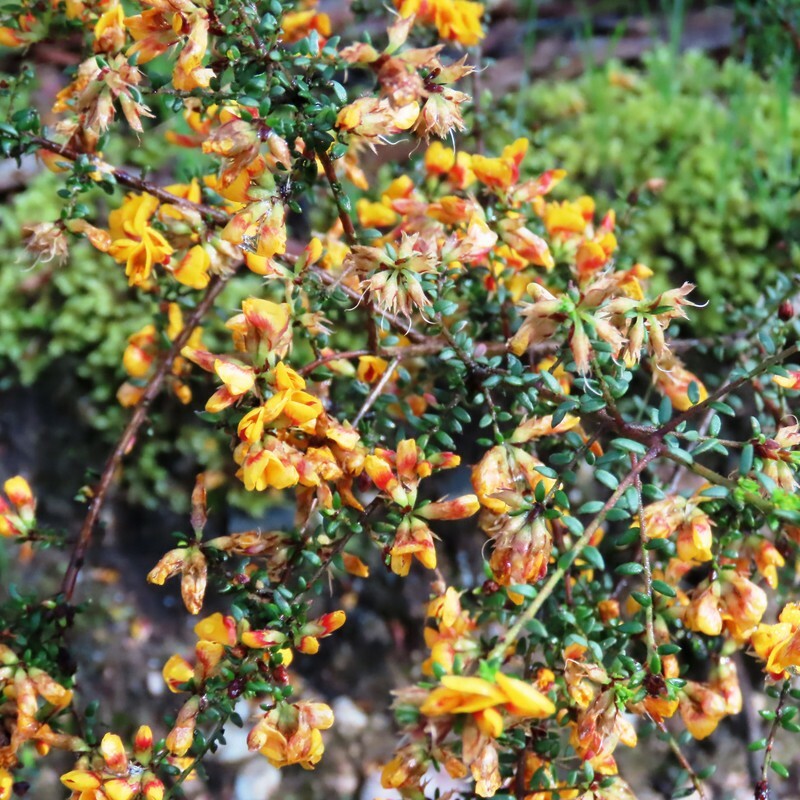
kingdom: Plantae
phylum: Tracheophyta
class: Magnoliopsida
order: Fabales
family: Fabaceae
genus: Pultenaea
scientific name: Pultenaea gunnii
